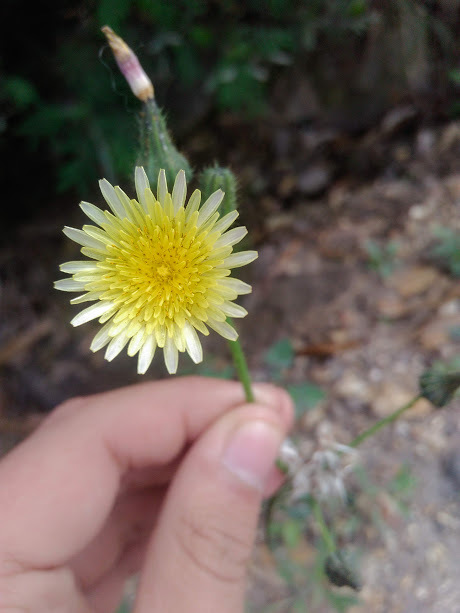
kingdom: Plantae
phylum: Tracheophyta
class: Magnoliopsida
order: Asterales
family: Asteraceae
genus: Sonchus
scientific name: Sonchus oleraceus
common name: Common sowthistle
